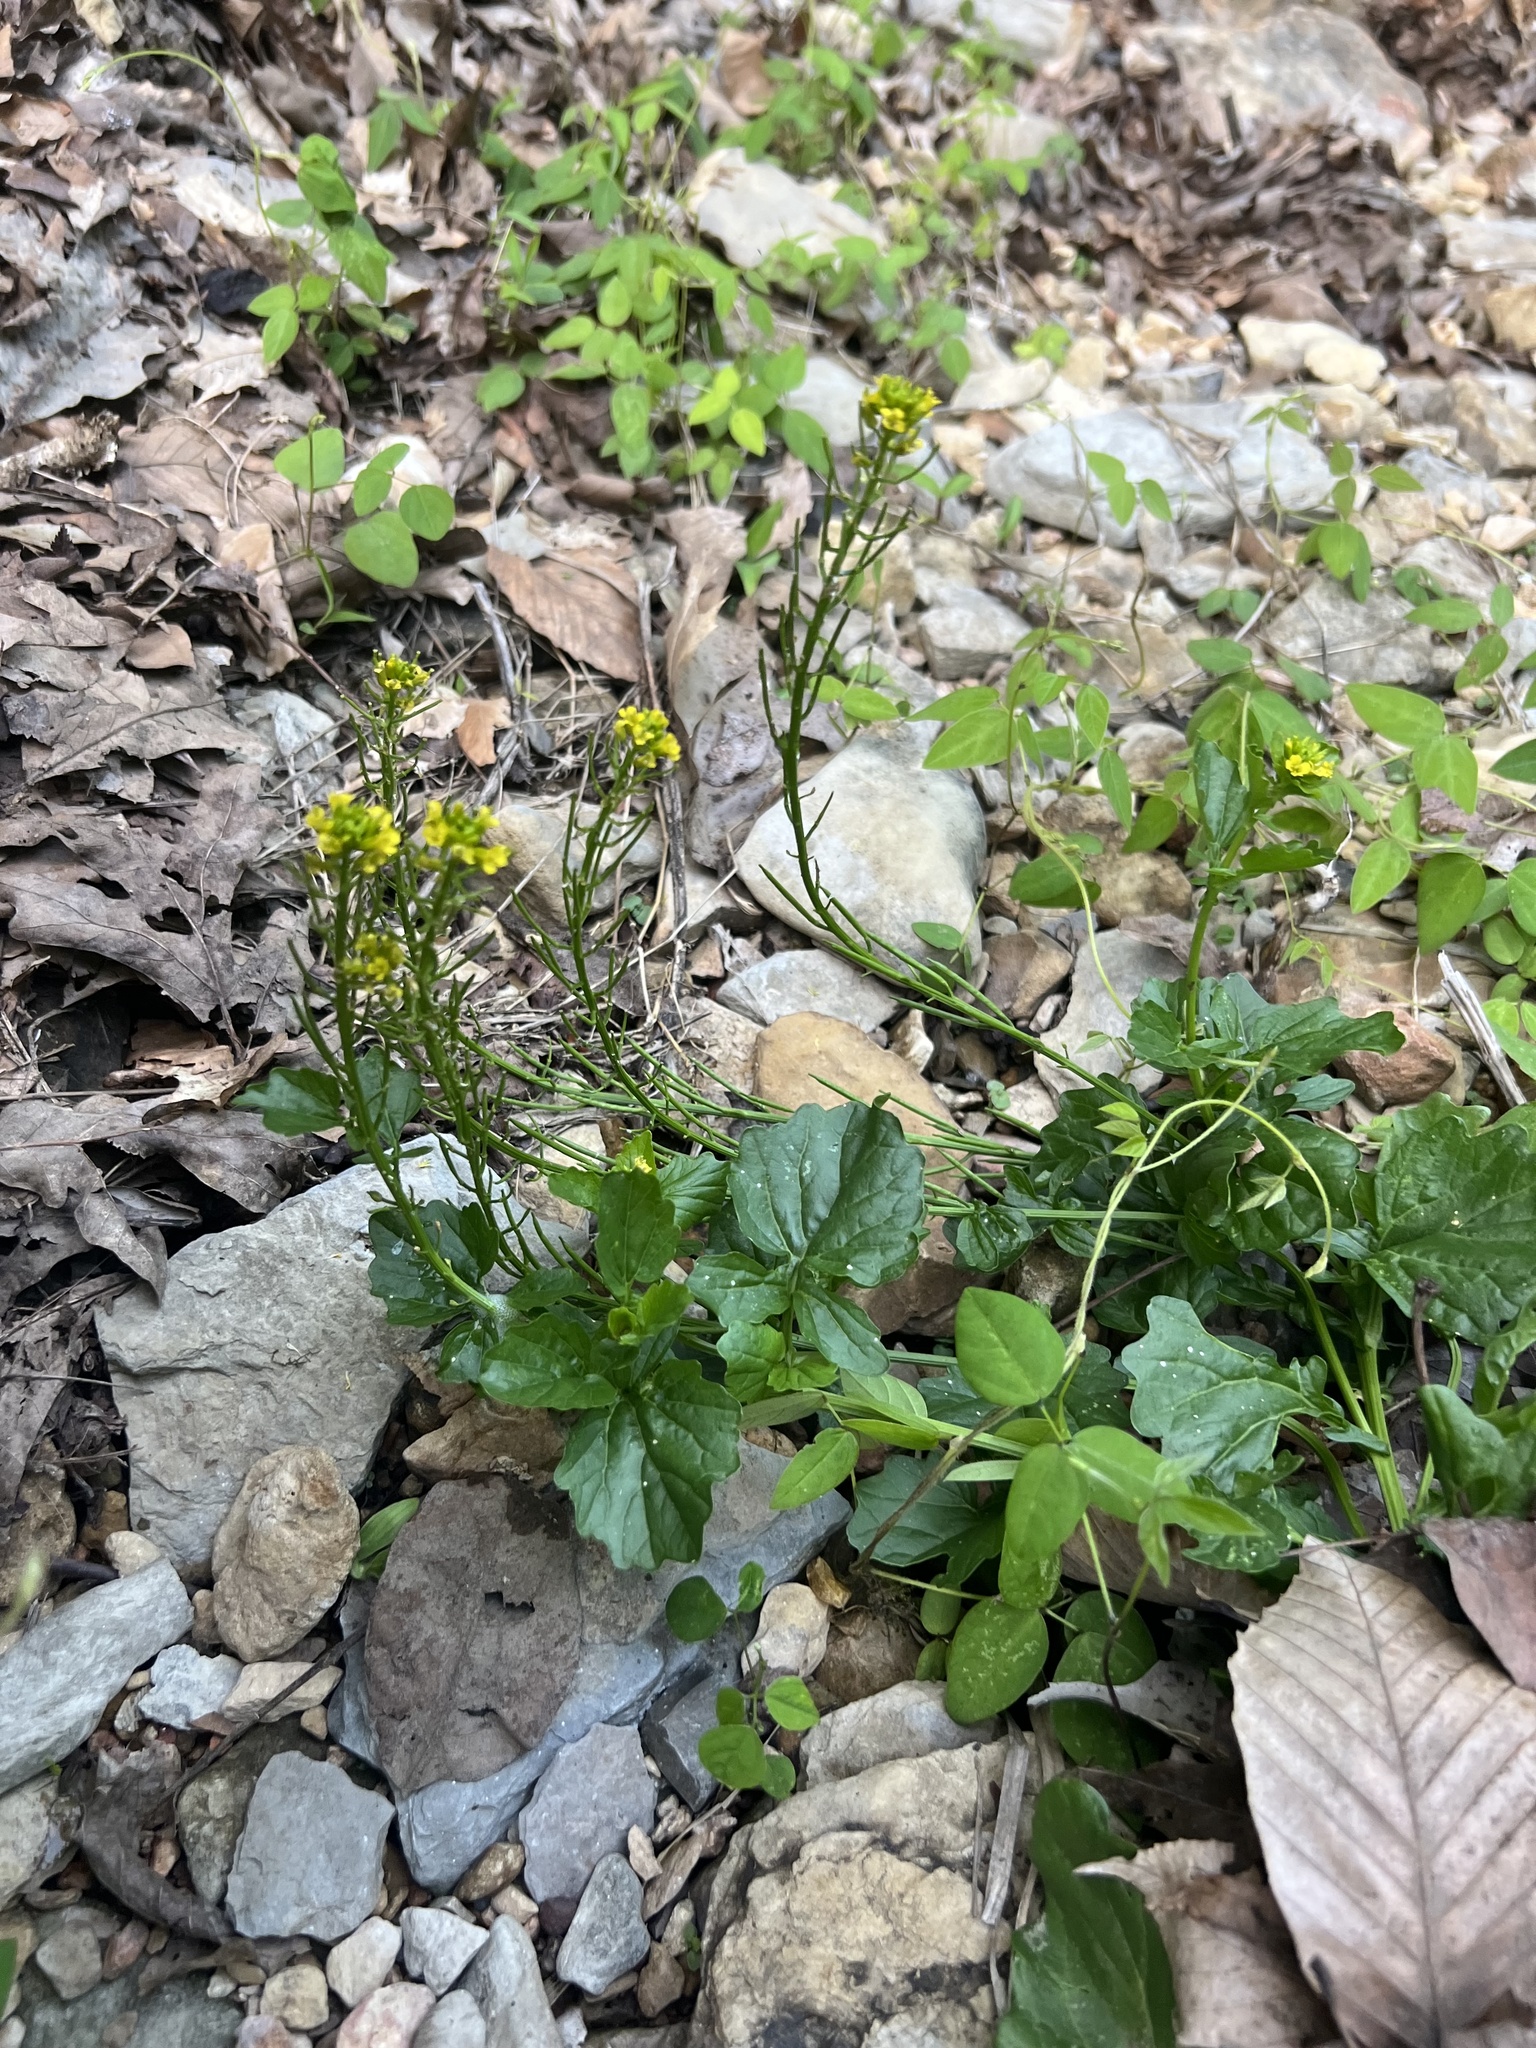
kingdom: Plantae
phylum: Tracheophyta
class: Magnoliopsida
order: Brassicales
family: Brassicaceae
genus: Barbarea
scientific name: Barbarea vulgaris
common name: Cressy-greens
